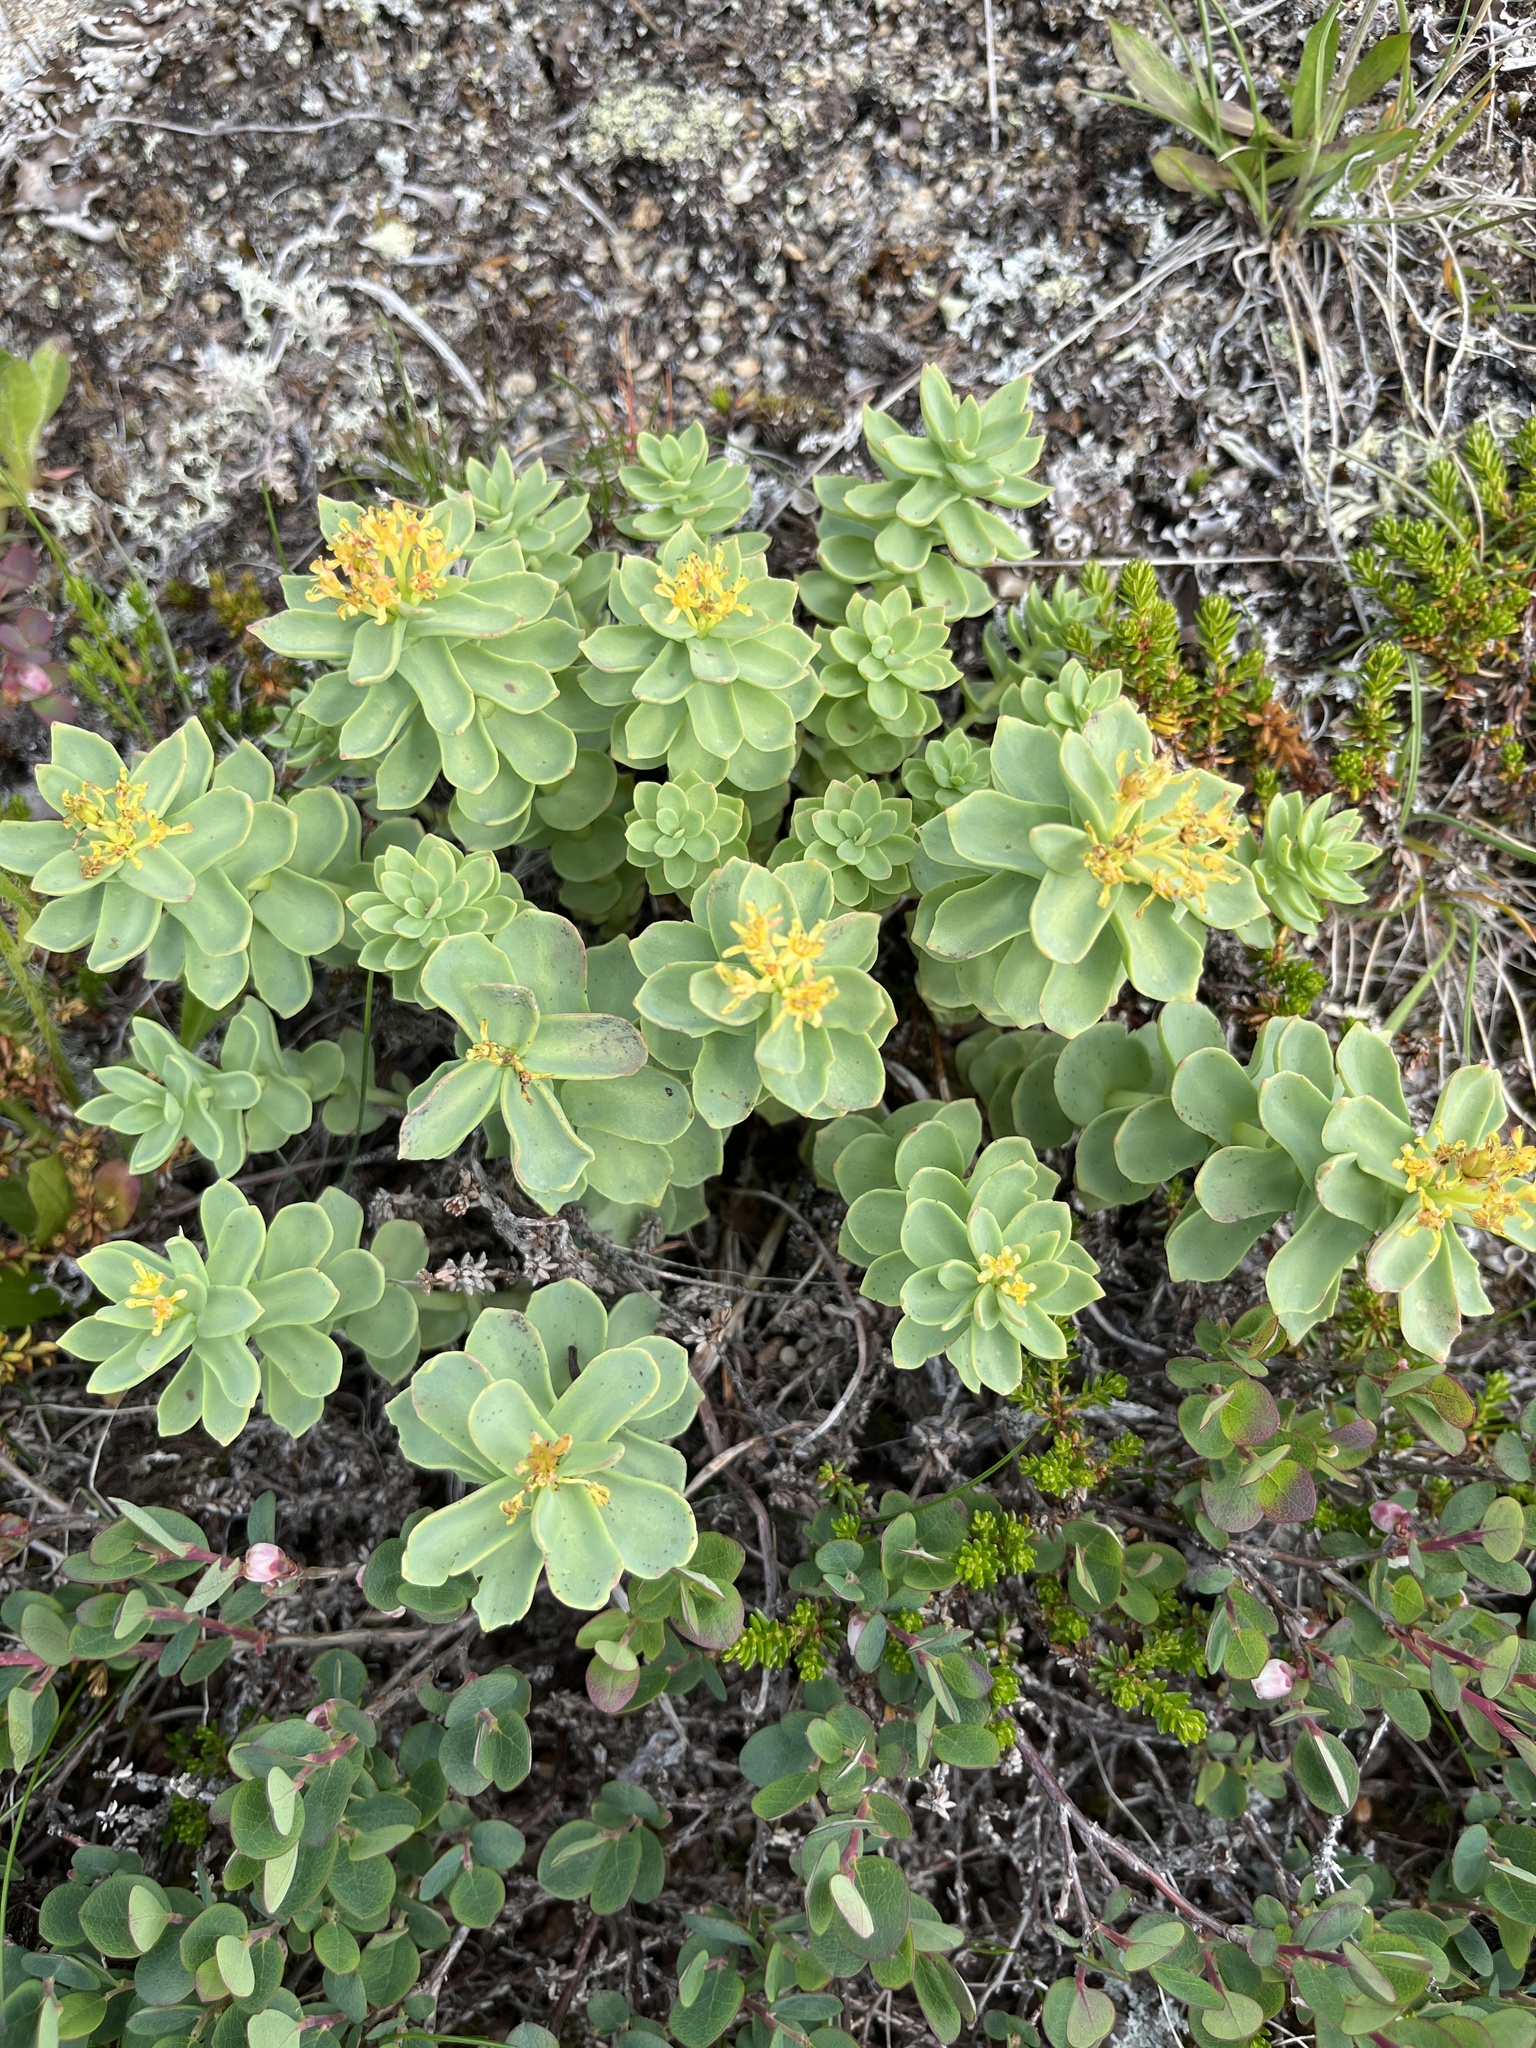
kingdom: Plantae
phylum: Tracheophyta
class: Magnoliopsida
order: Saxifragales
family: Crassulaceae
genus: Rhodiola
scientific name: Rhodiola rosea
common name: Roseroot
